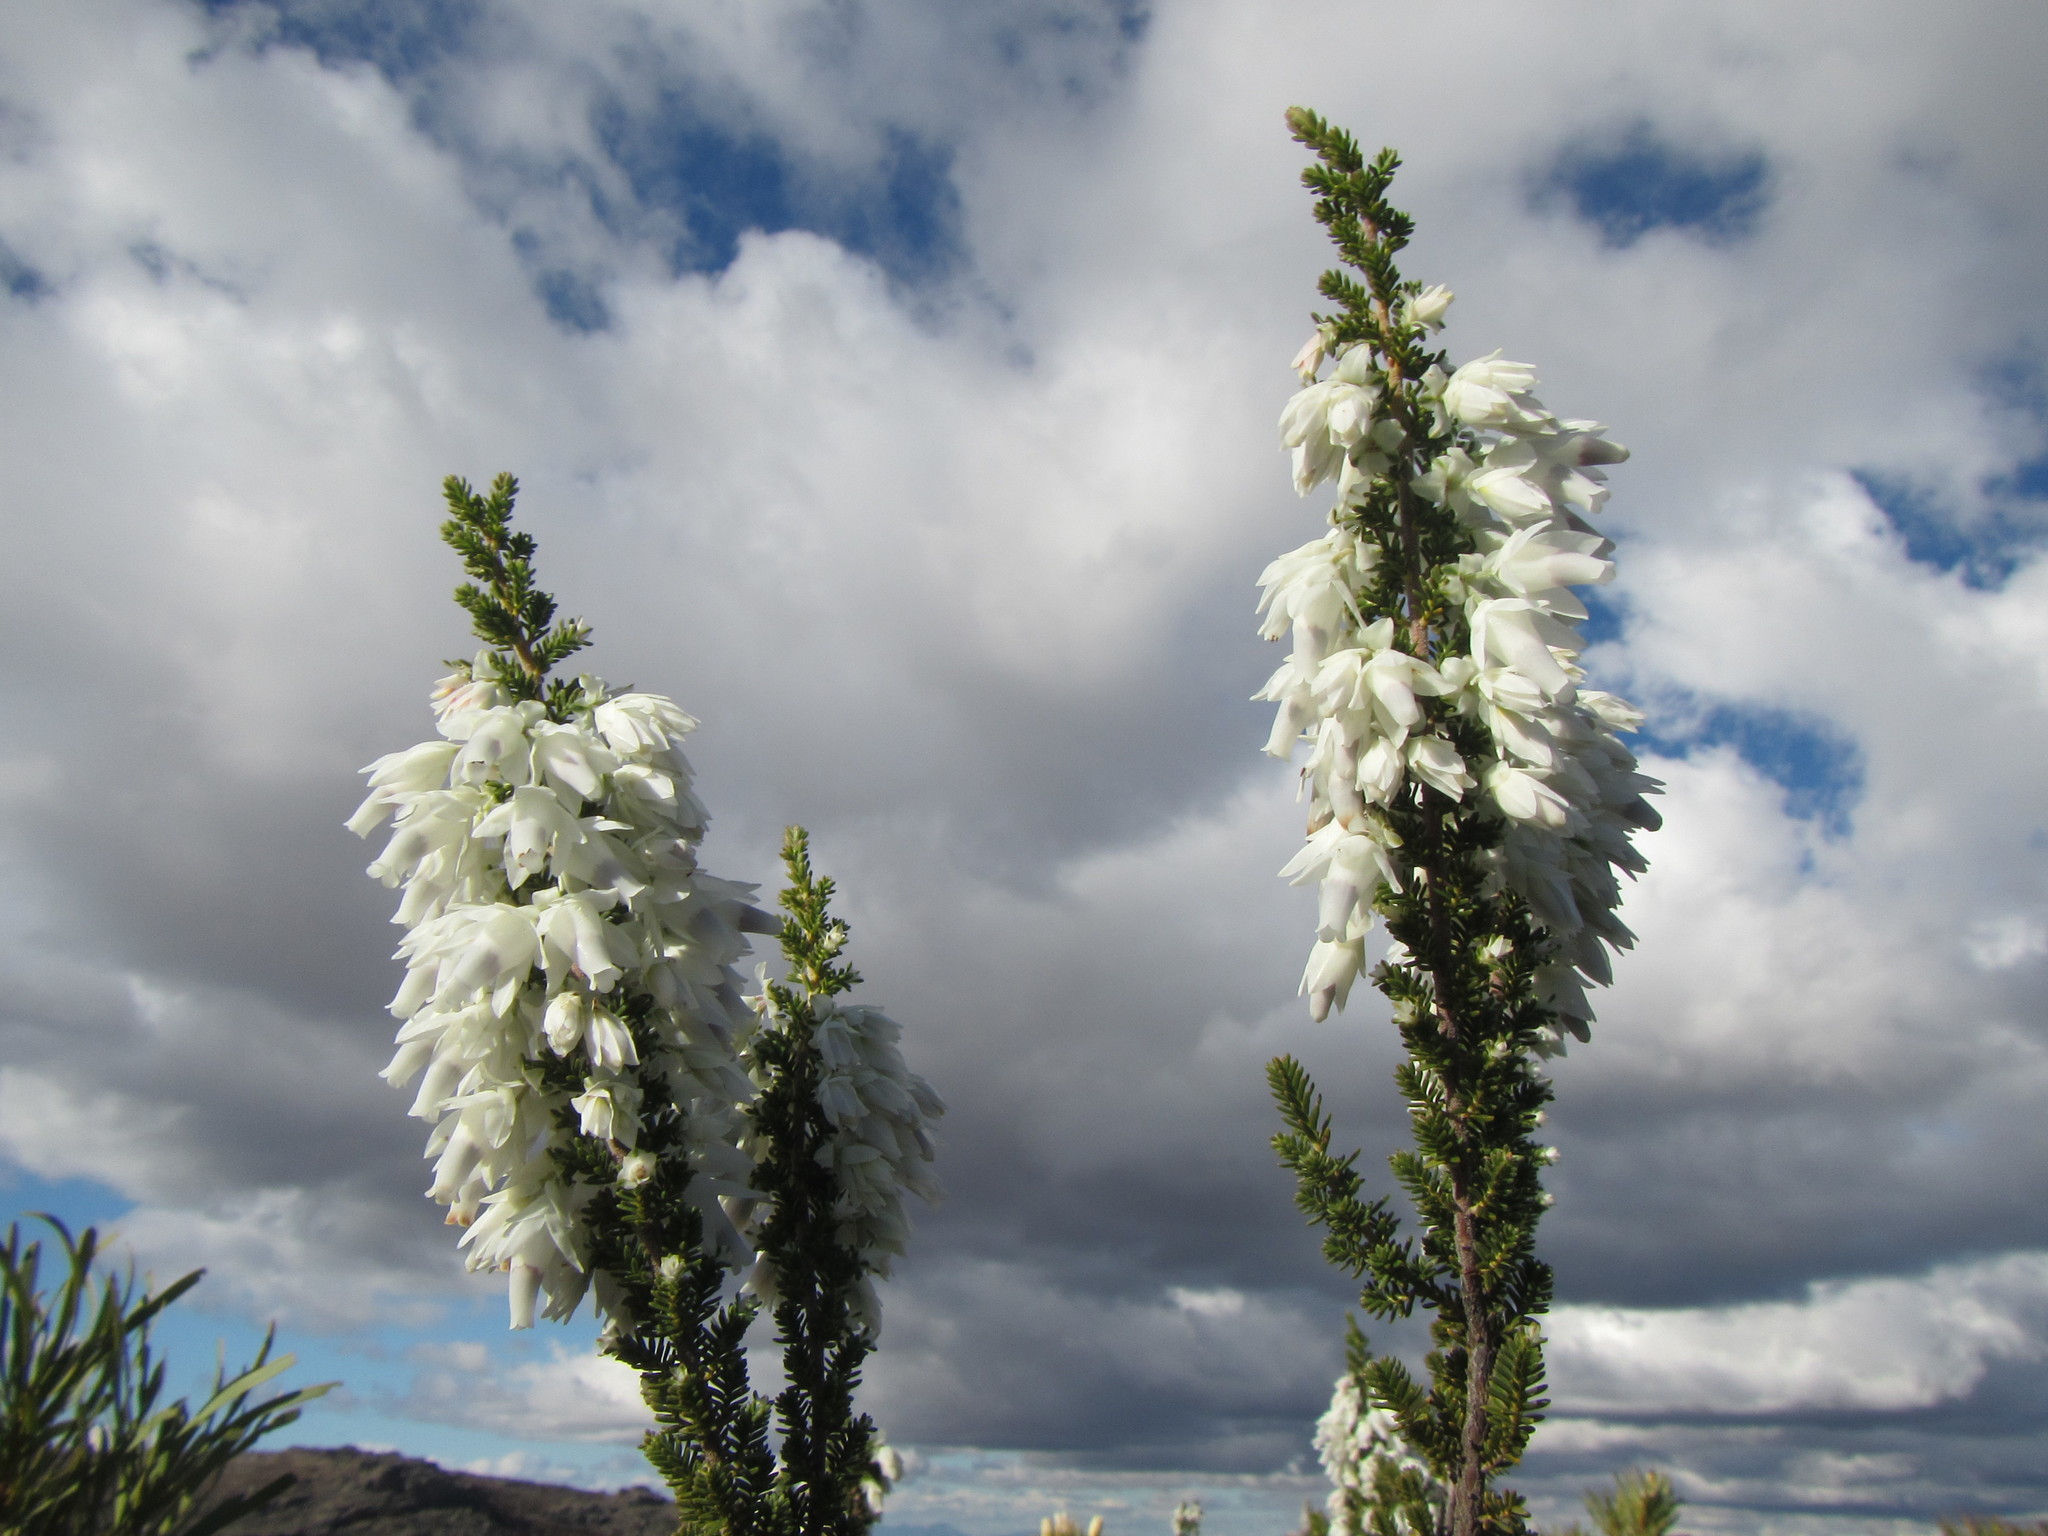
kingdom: Plantae
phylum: Tracheophyta
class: Magnoliopsida
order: Ericales
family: Ericaceae
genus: Erica
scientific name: Erica monsoniana
